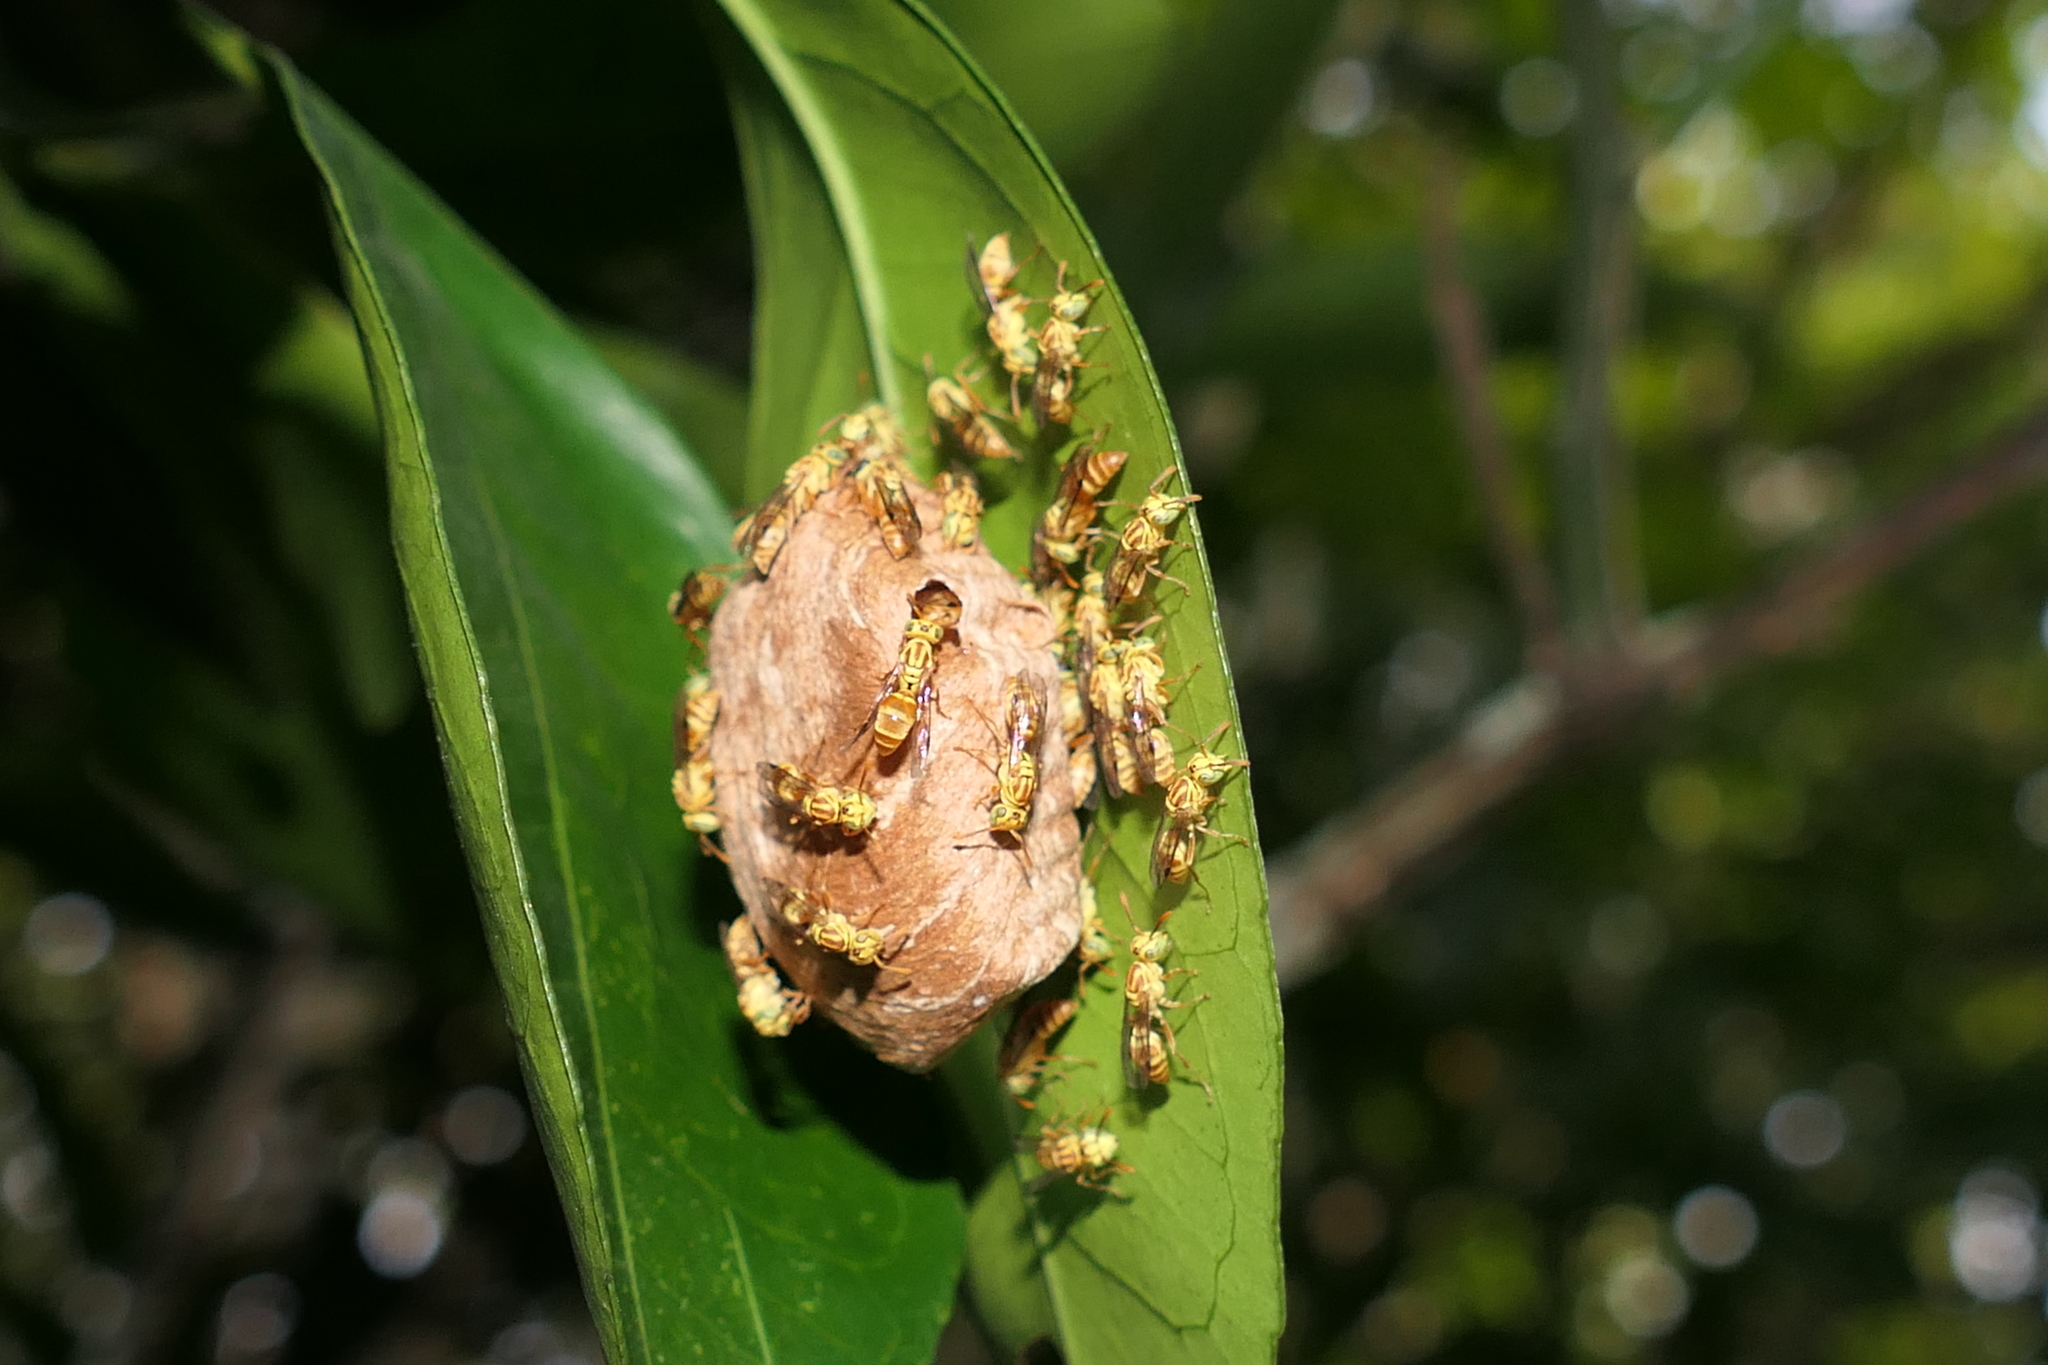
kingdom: Animalia
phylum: Arthropoda
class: Insecta
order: Hymenoptera
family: Vespidae
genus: Protopolybia
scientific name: Protopolybia potiguara
